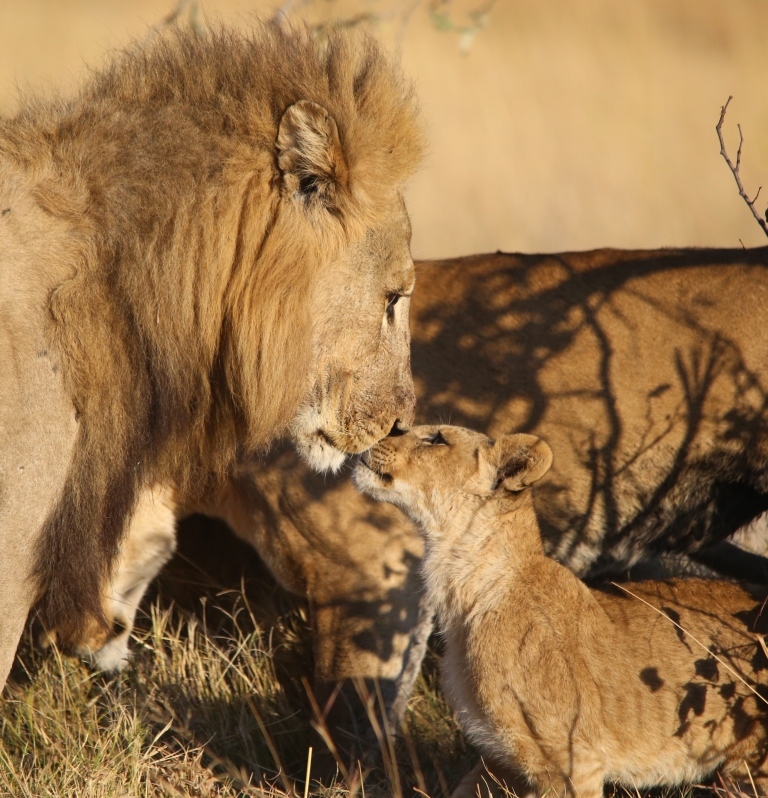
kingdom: Animalia
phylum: Chordata
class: Mammalia
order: Carnivora
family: Felidae
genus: Panthera
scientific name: Panthera leo
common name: Lion
